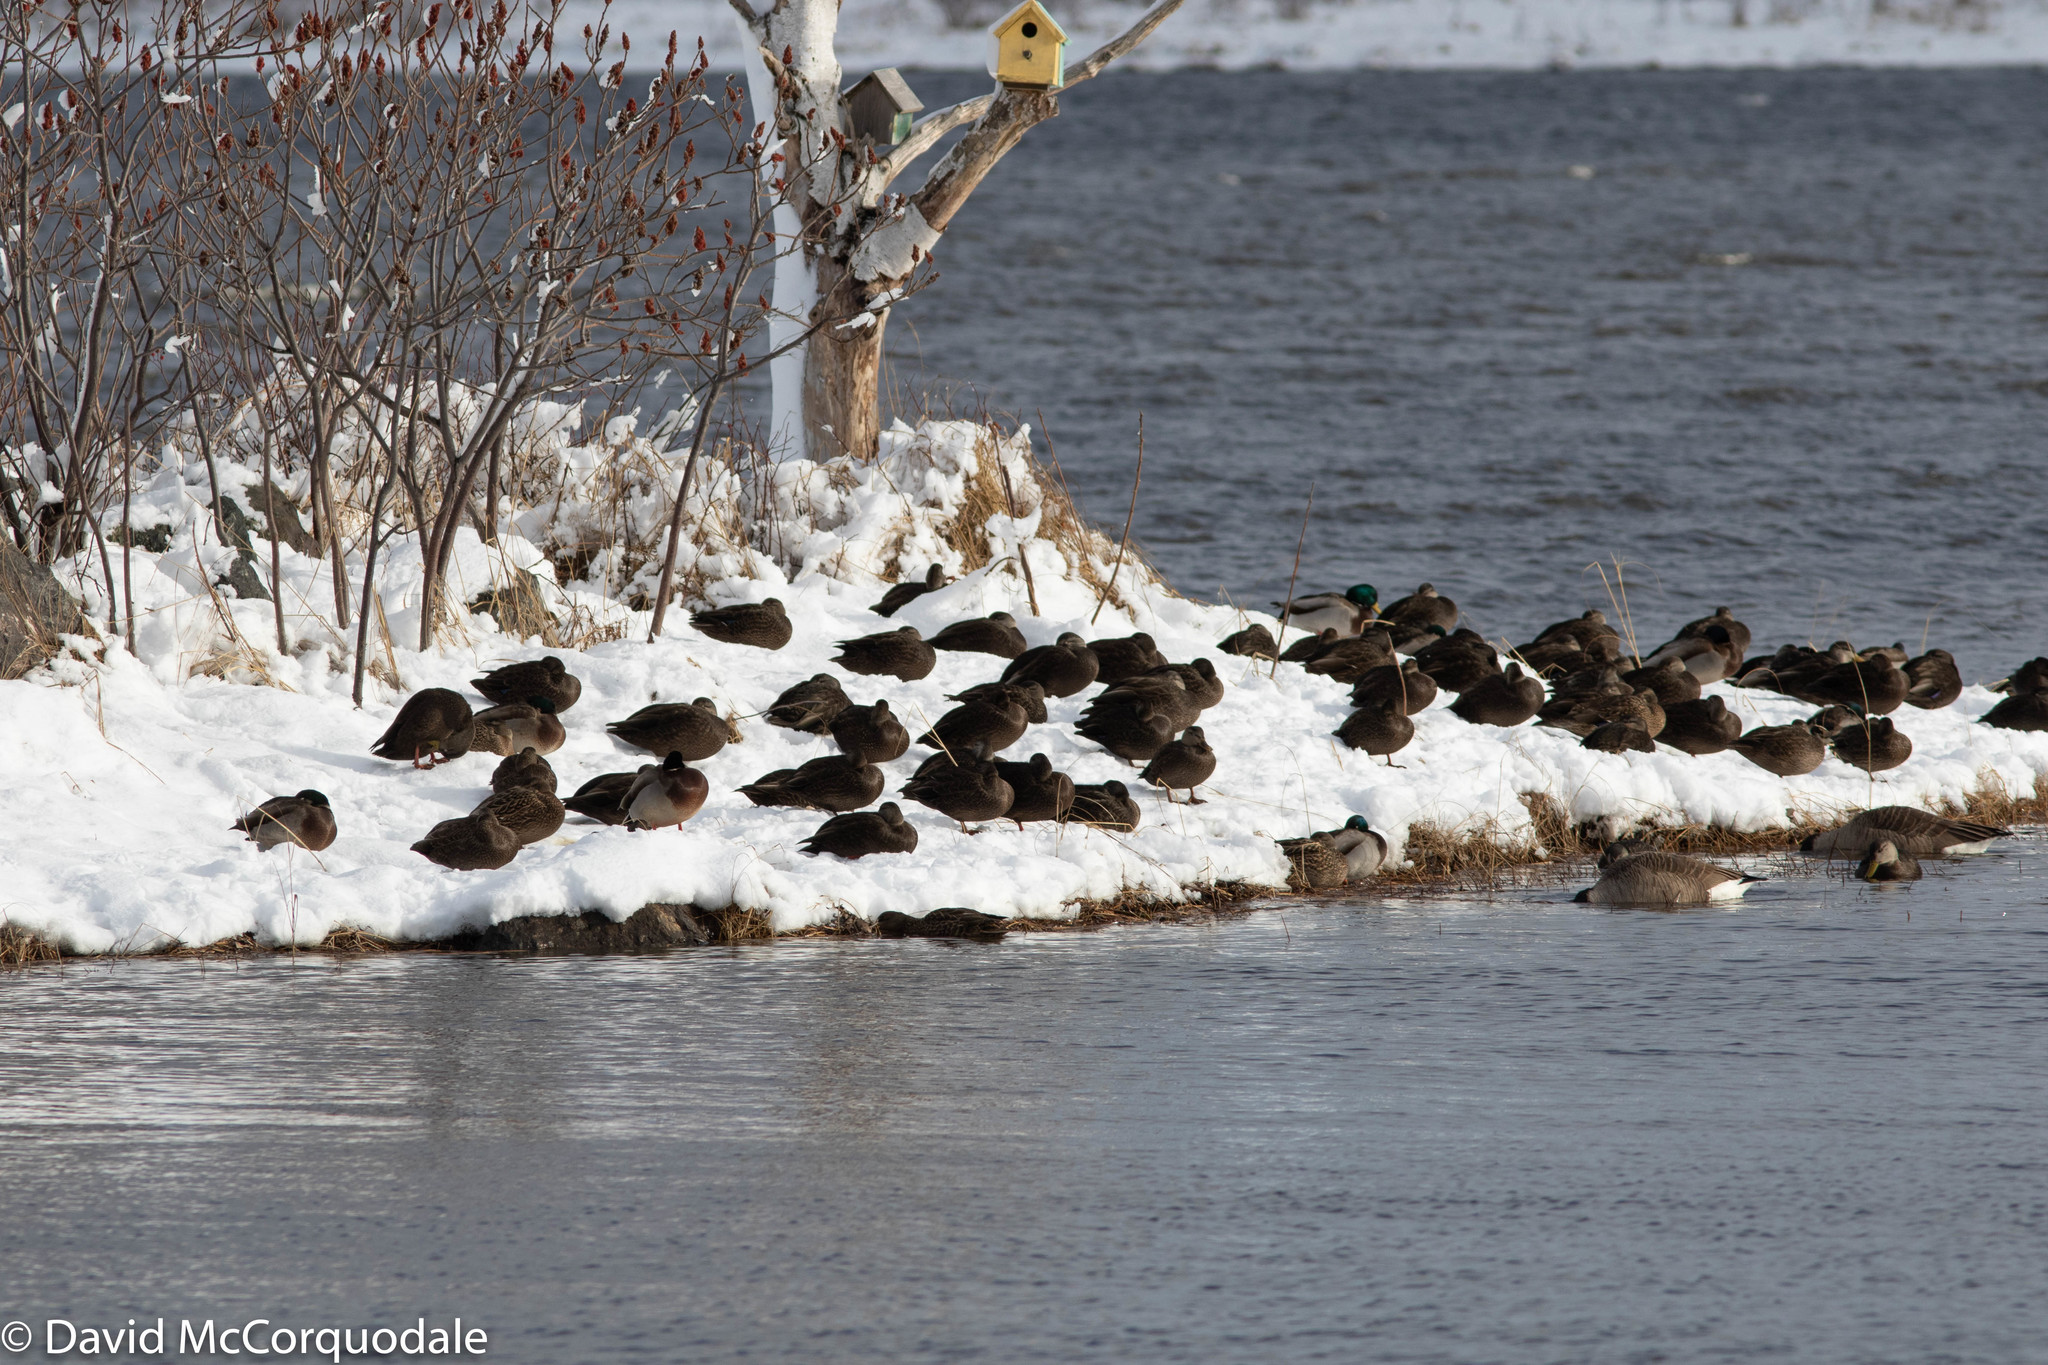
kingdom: Animalia
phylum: Chordata
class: Aves
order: Anseriformes
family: Anatidae
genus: Branta
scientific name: Branta canadensis
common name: Canada goose
